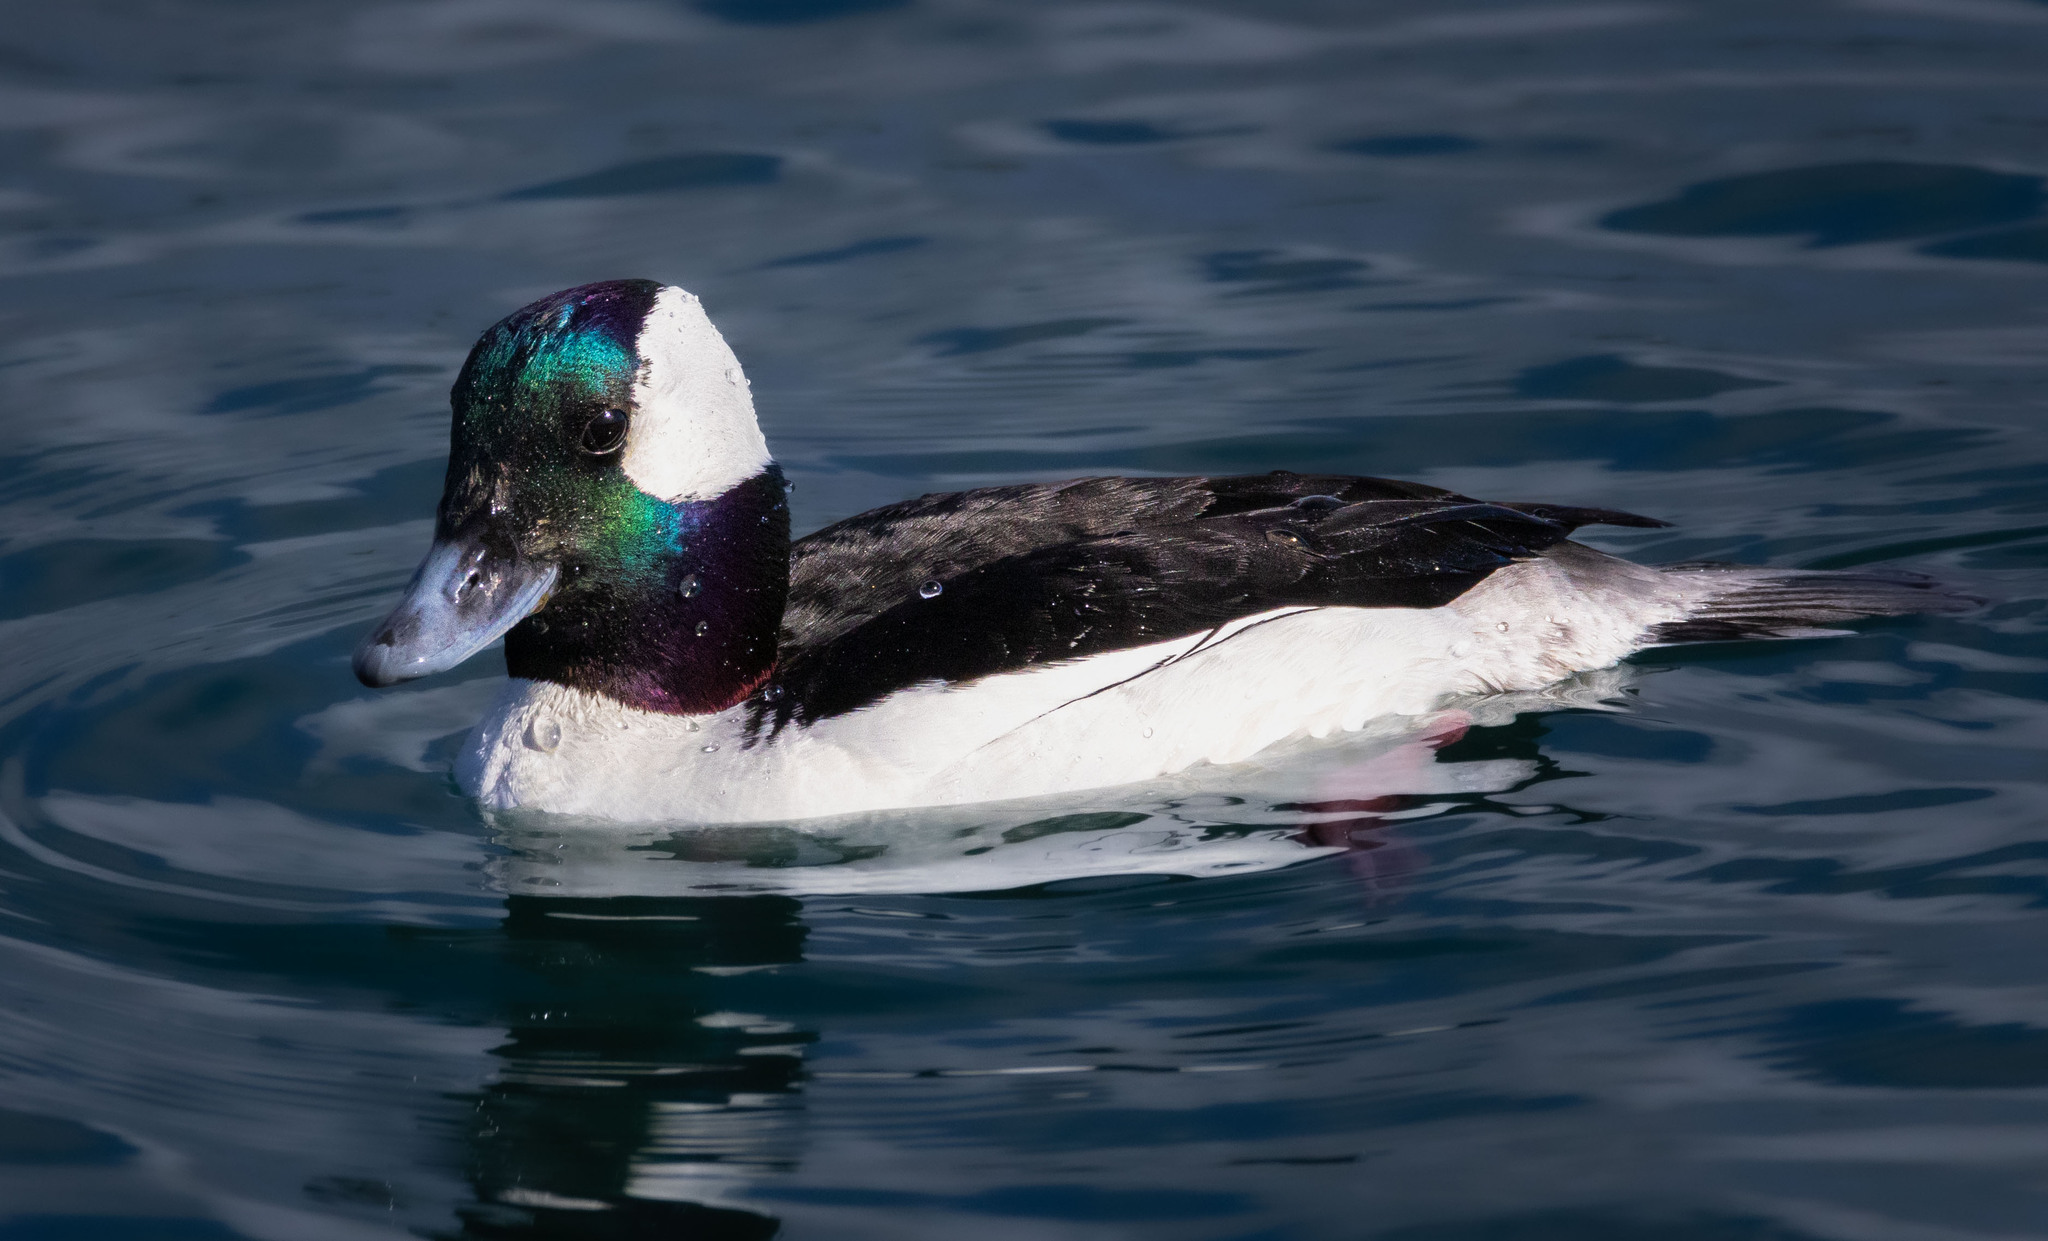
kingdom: Animalia
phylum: Chordata
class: Aves
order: Anseriformes
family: Anatidae
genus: Bucephala
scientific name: Bucephala albeola
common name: Bufflehead
